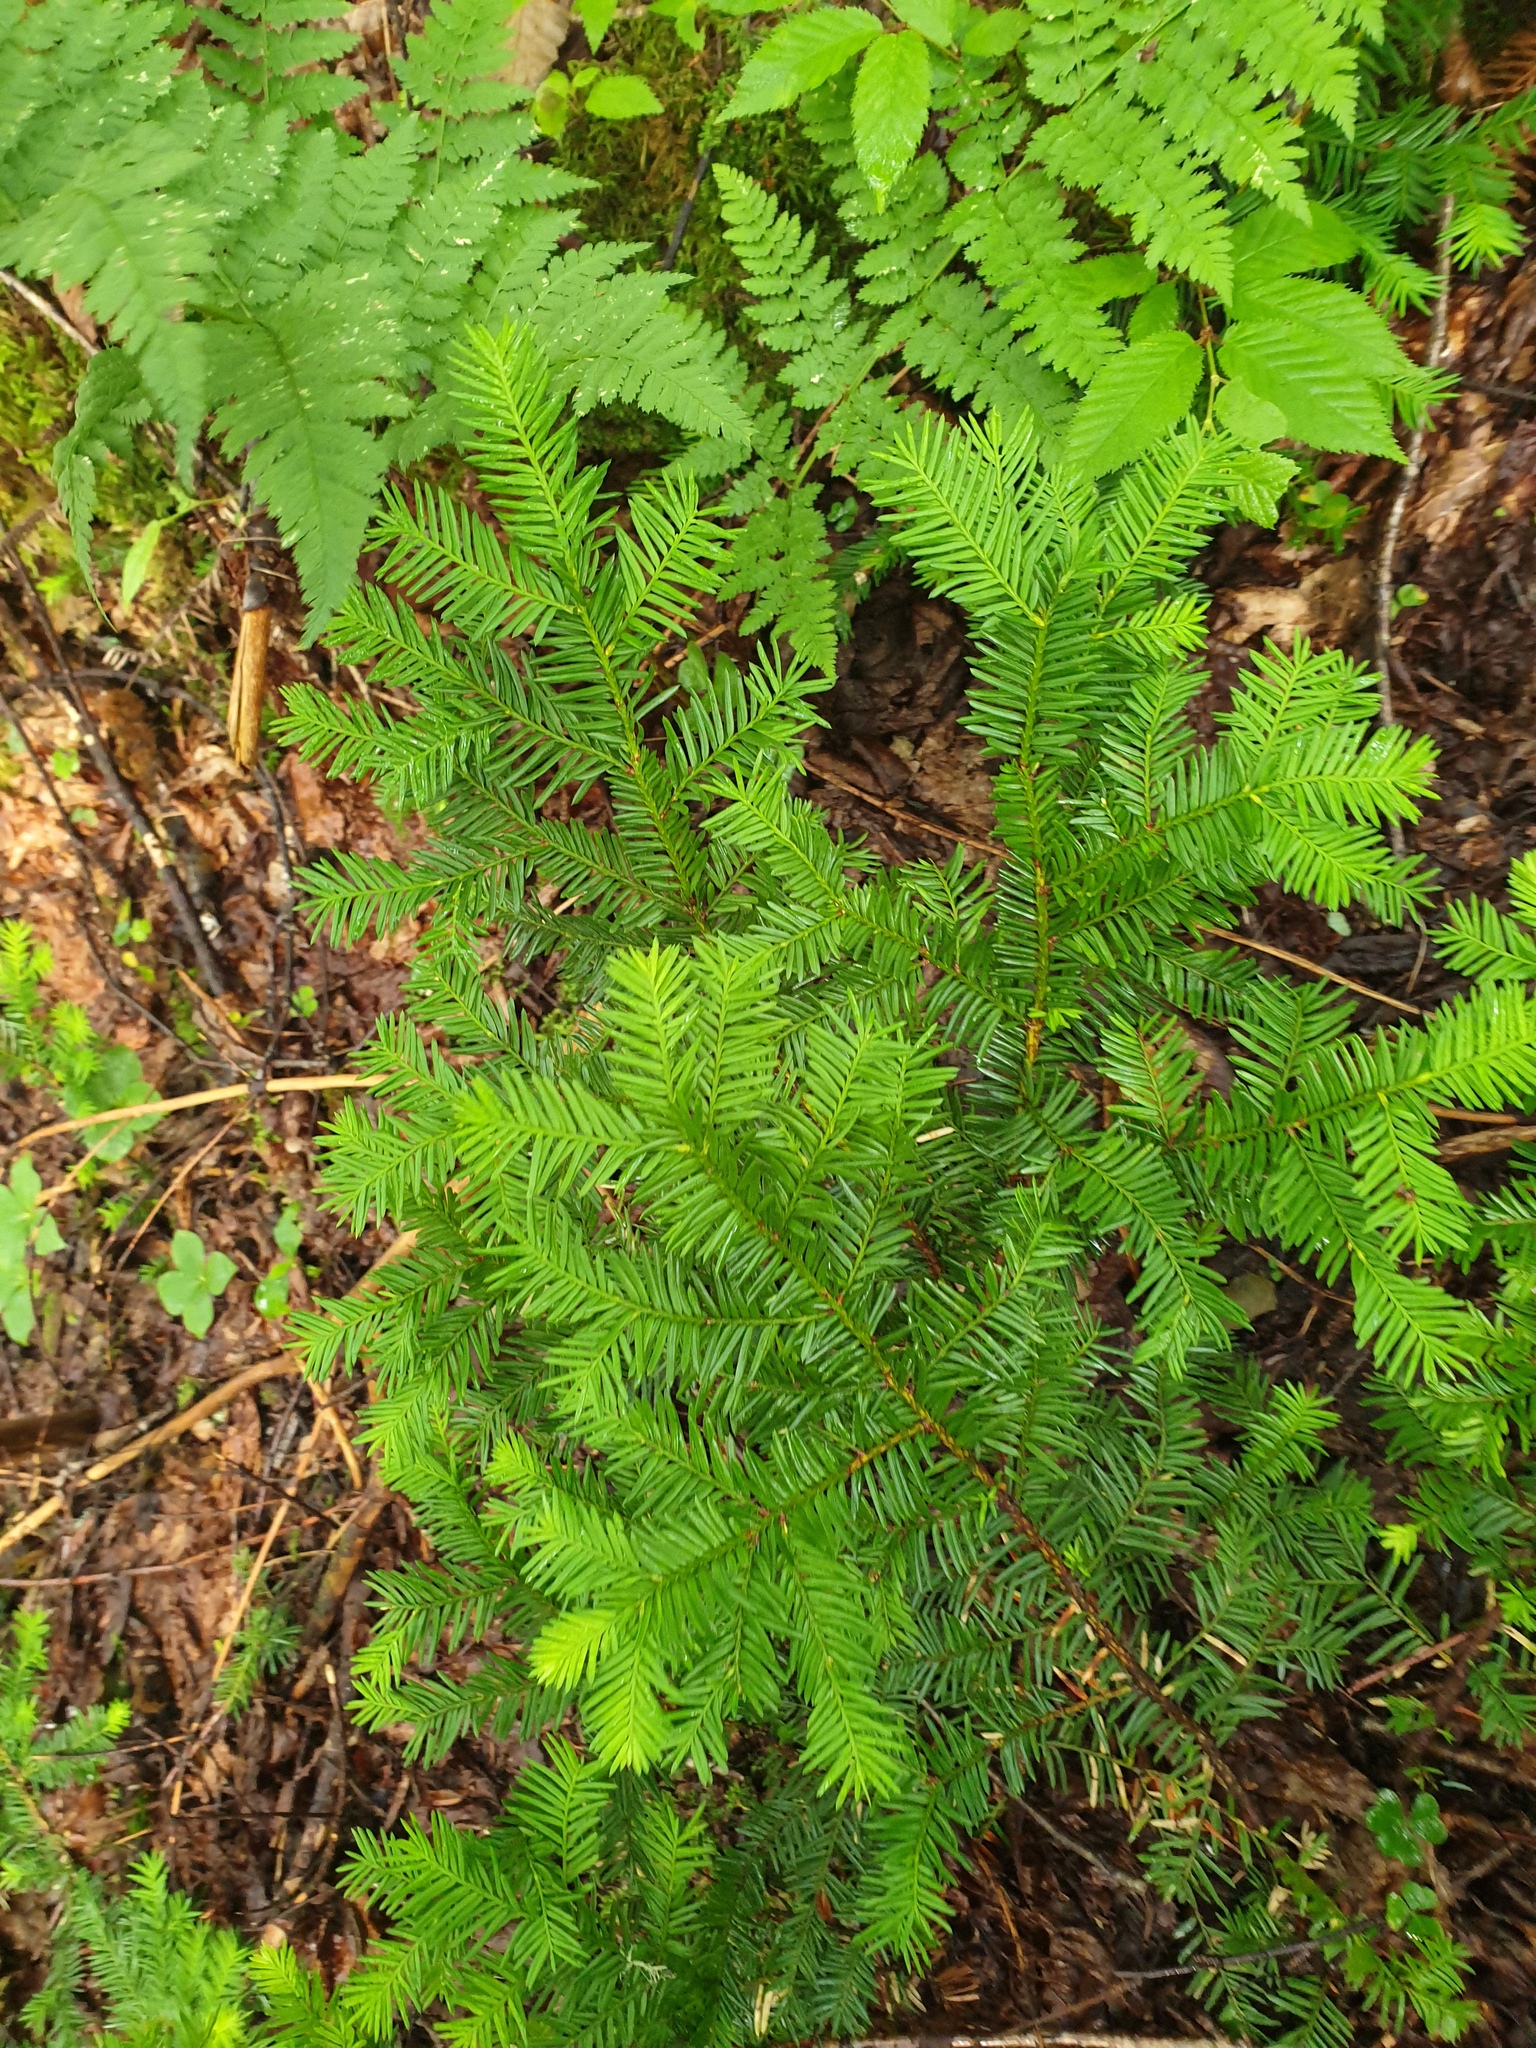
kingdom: Plantae
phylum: Tracheophyta
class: Pinopsida
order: Pinales
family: Taxaceae
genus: Taxus
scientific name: Taxus canadensis
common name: American yew
